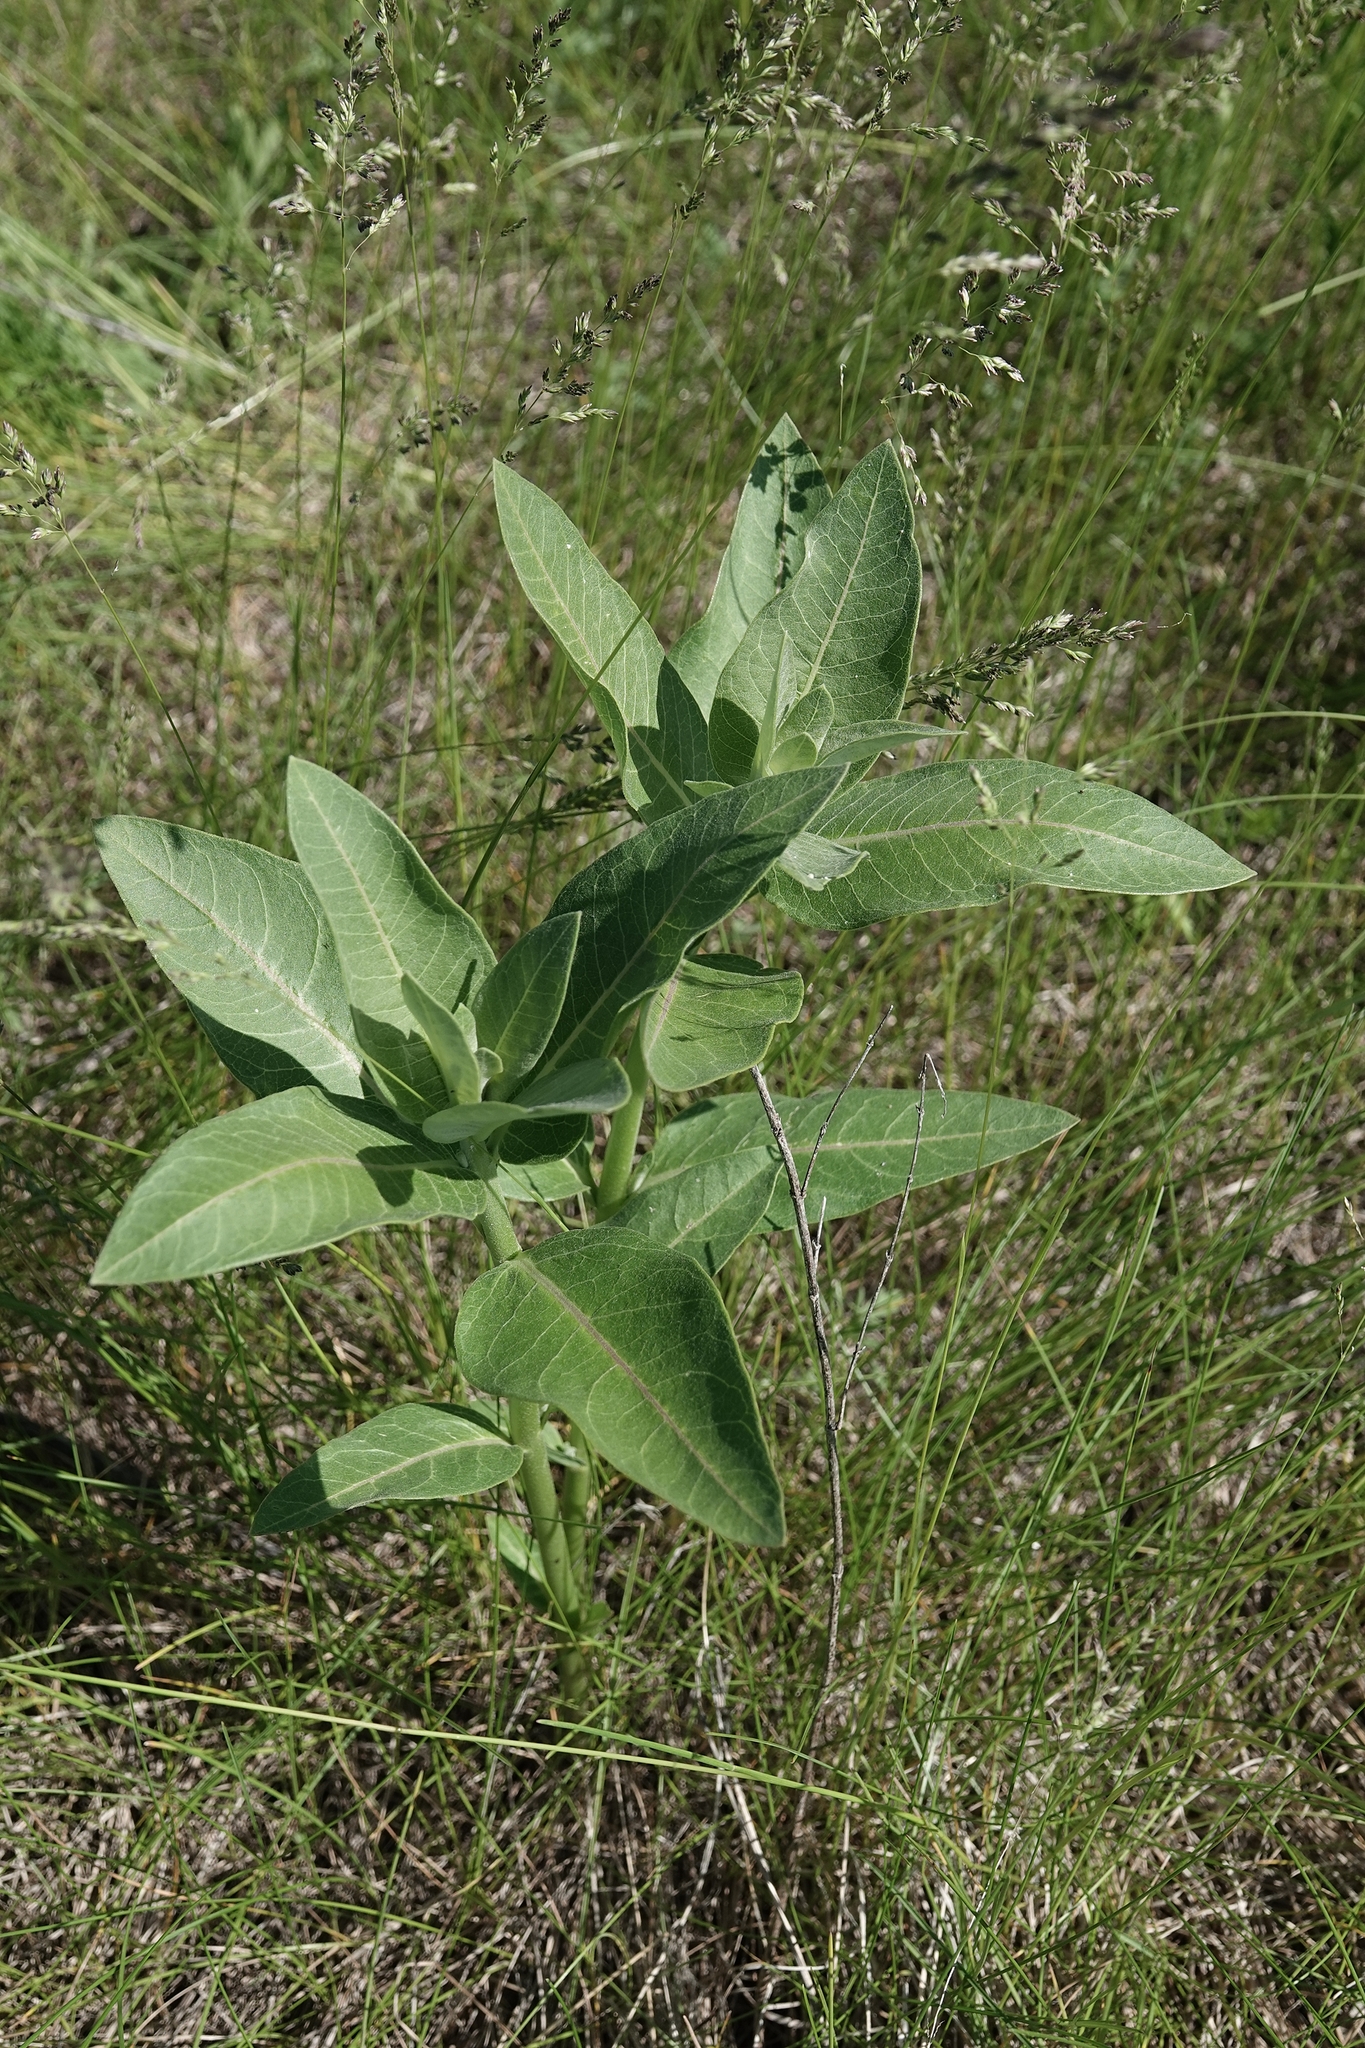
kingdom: Plantae
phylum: Tracheophyta
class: Magnoliopsida
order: Gentianales
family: Apocynaceae
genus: Asclepias
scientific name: Asclepias speciosa
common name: Showy milkweed
